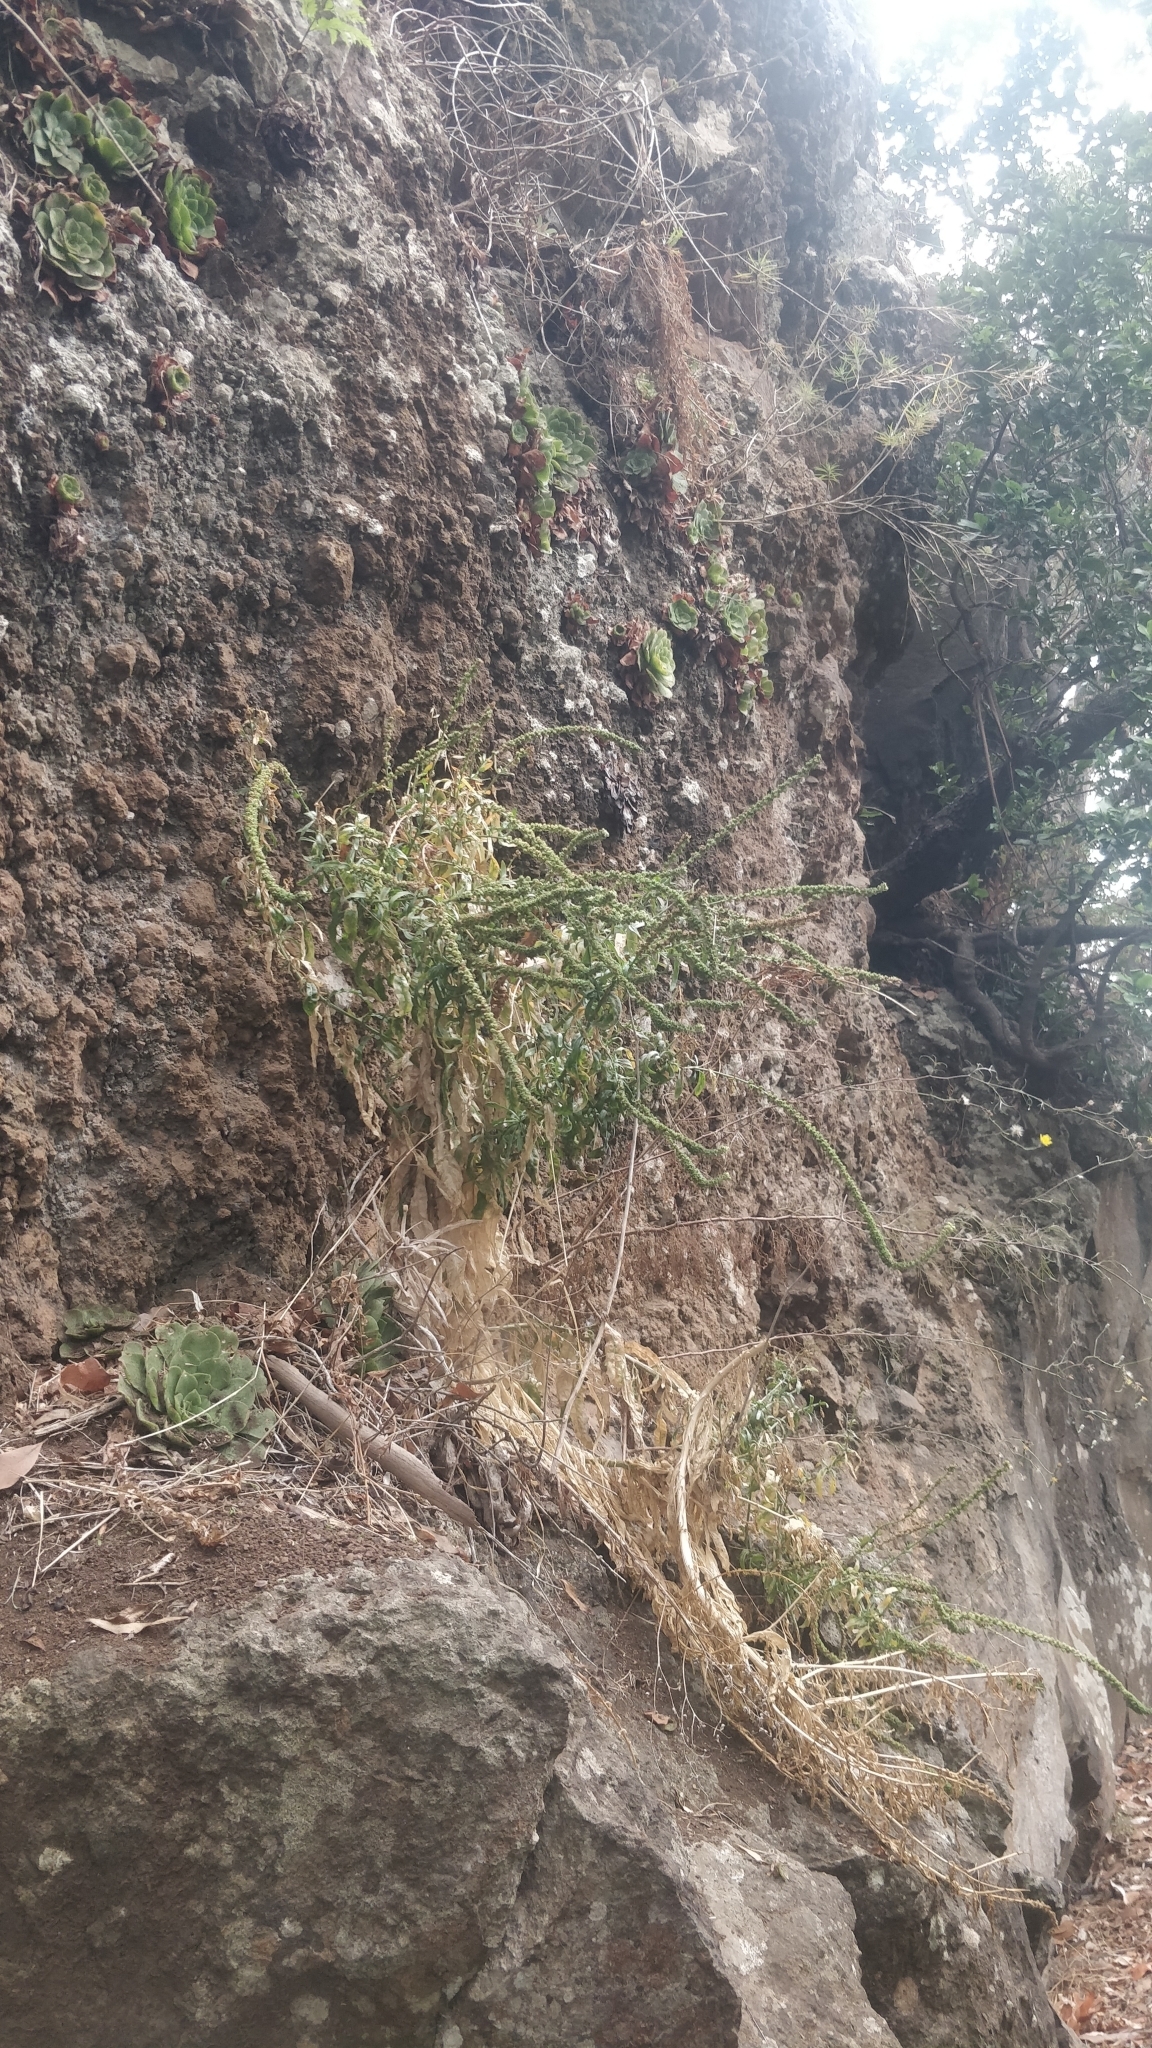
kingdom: Plantae
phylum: Tracheophyta
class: Magnoliopsida
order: Brassicales
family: Resedaceae
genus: Reseda
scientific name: Reseda luteola
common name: Weld
